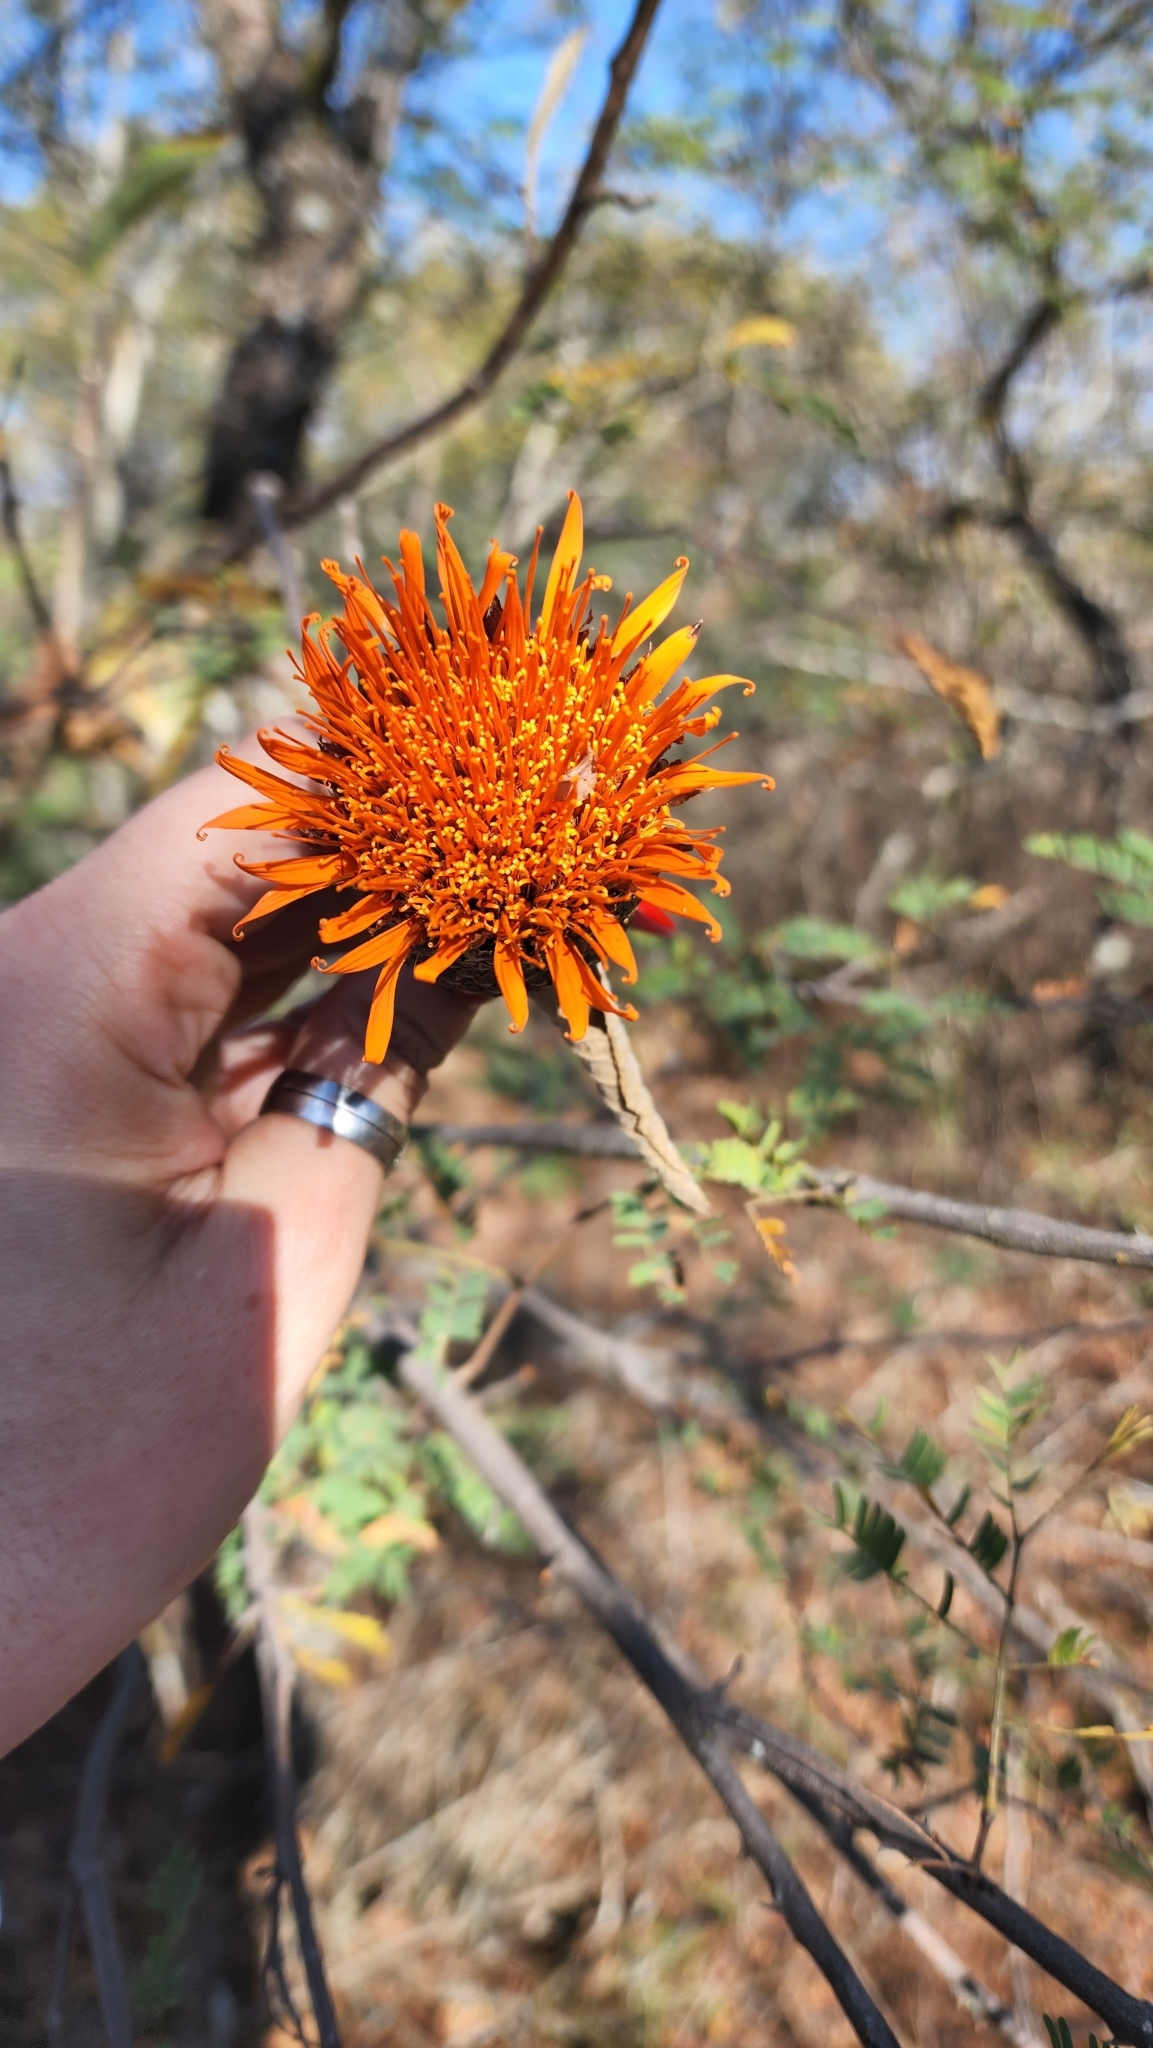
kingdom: Plantae
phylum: Tracheophyta
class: Magnoliopsida
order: Asterales
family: Asteraceae
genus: Cnicothamnus
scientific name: Cnicothamnus lorentzii
